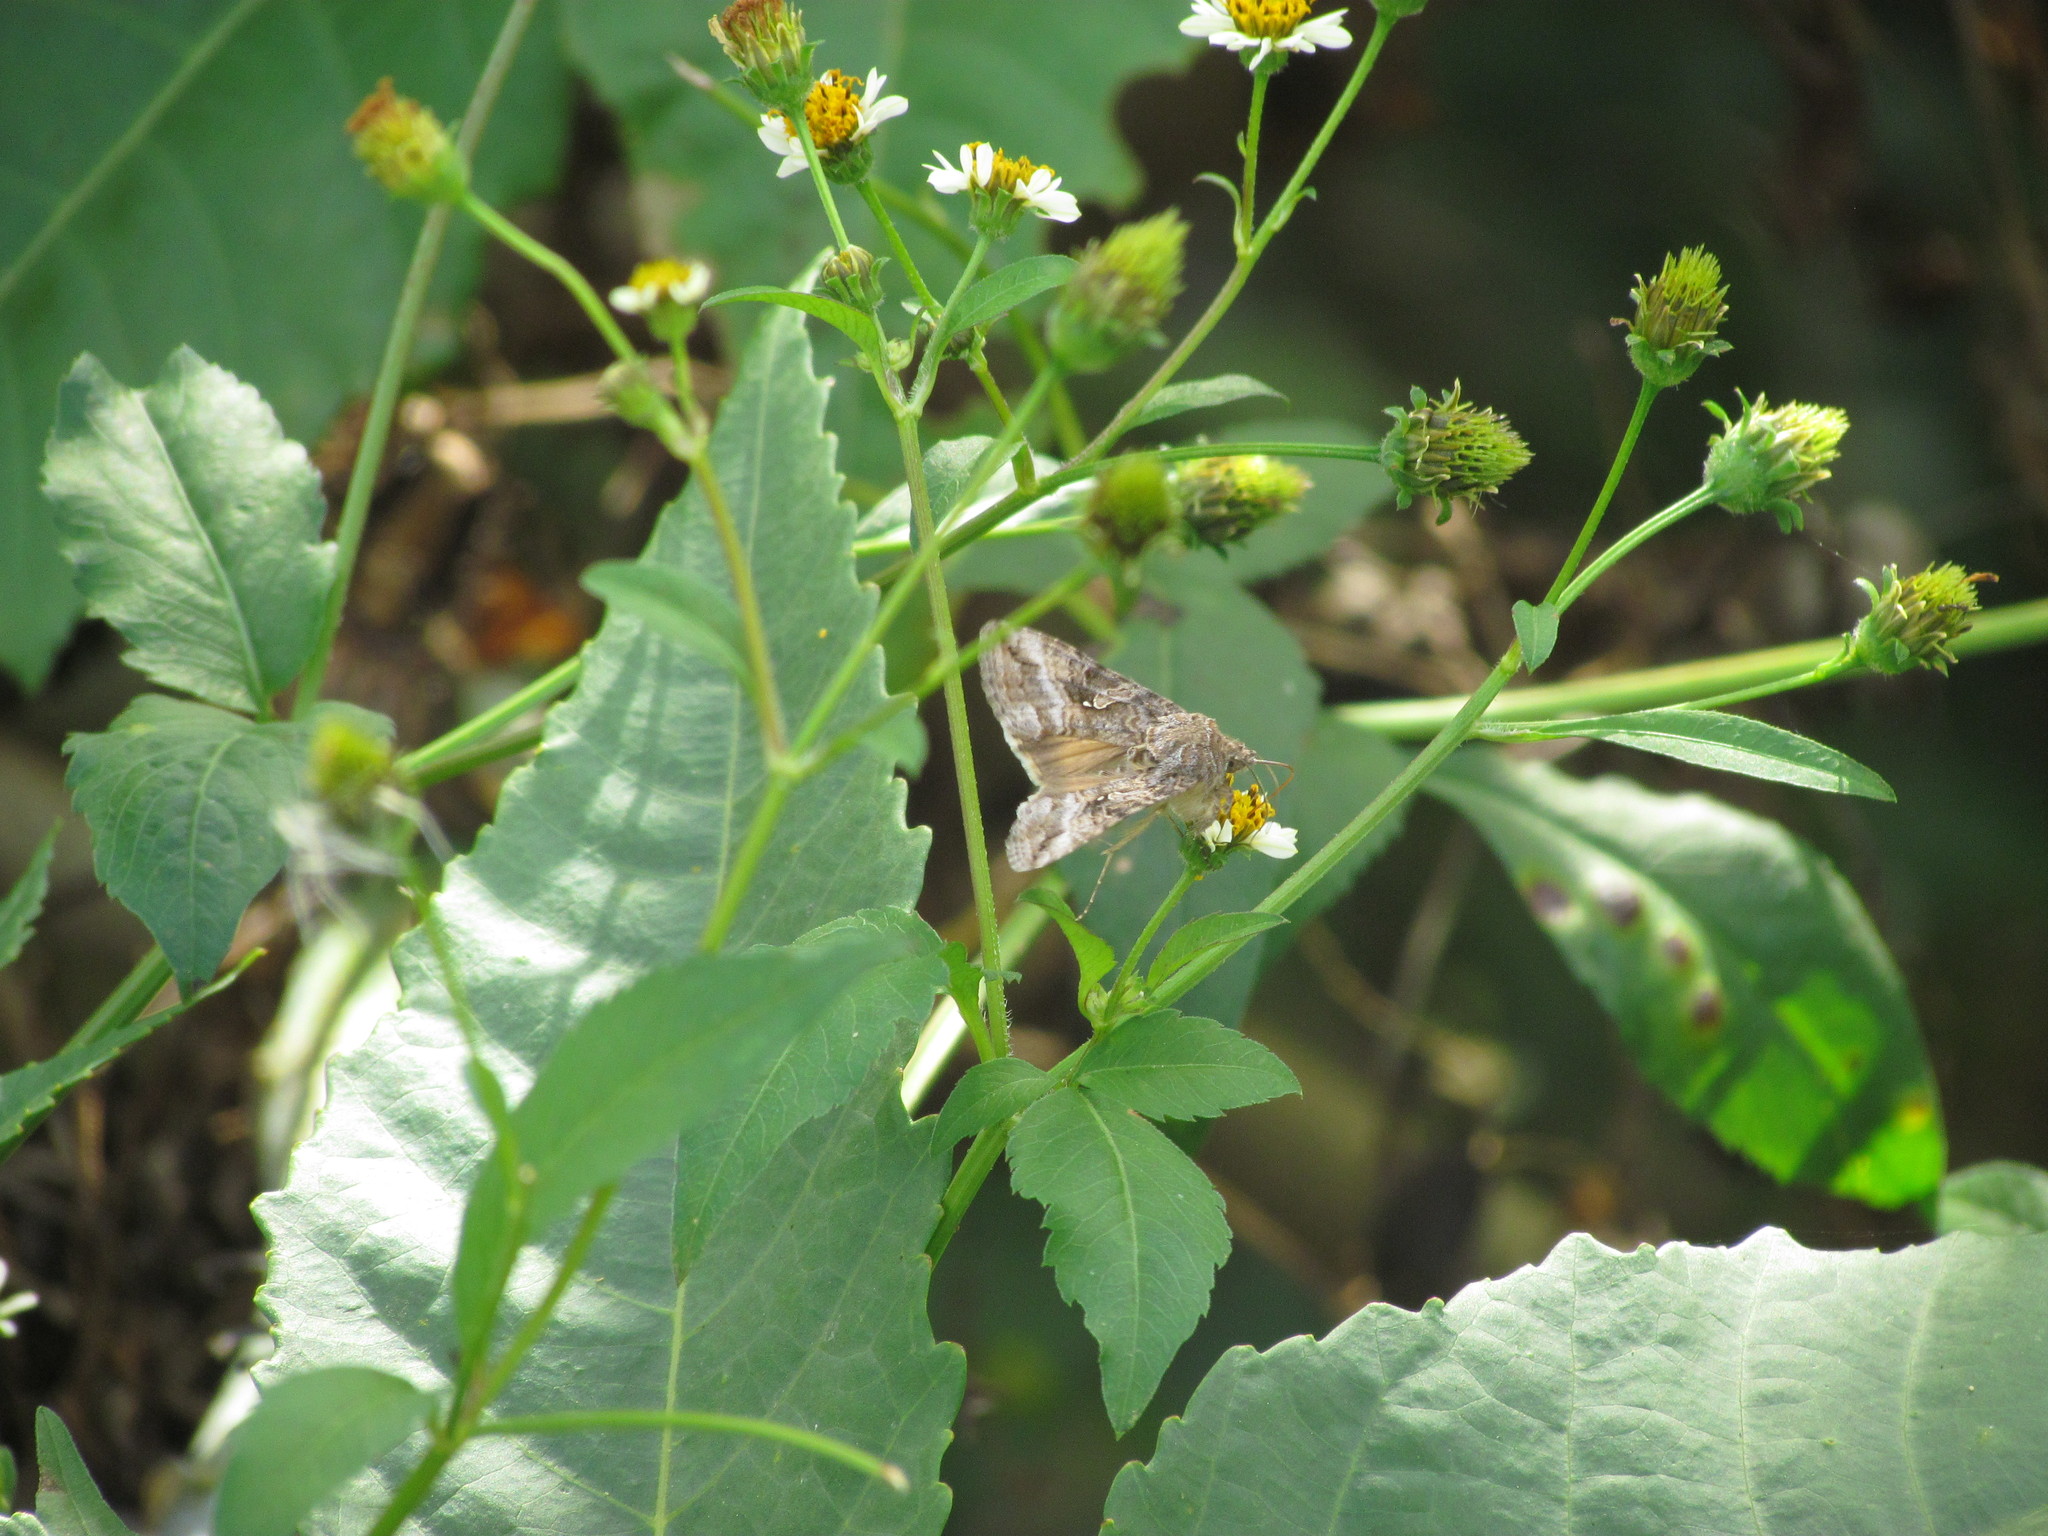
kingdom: Animalia
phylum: Arthropoda
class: Insecta
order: Lepidoptera
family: Noctuidae
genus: Rachiplusia
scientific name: Rachiplusia nu
